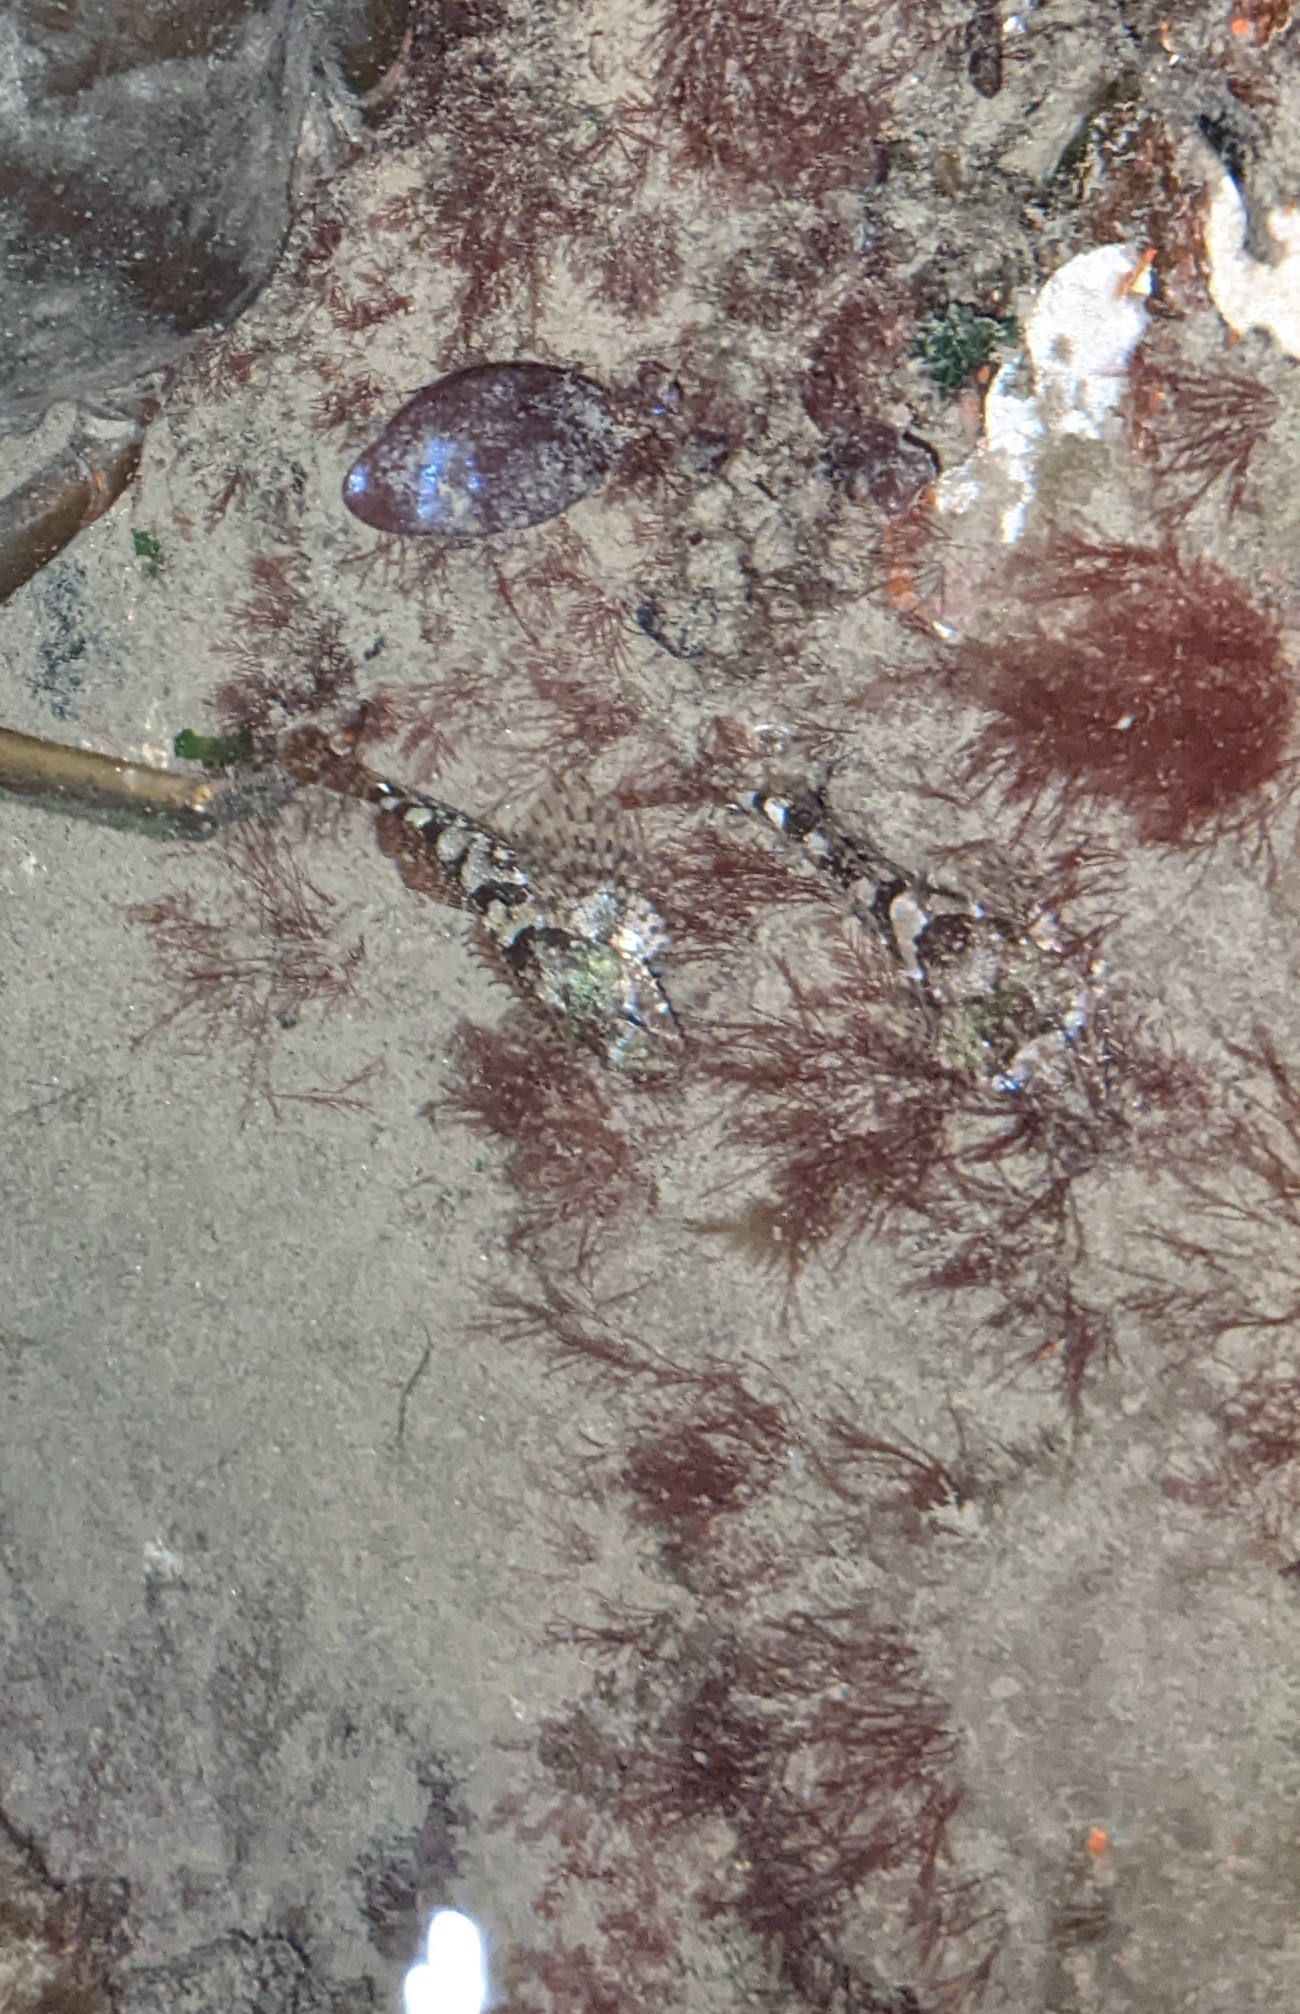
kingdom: Animalia
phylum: Chordata
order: Scorpaeniformes
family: Cottidae
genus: Oligocottus
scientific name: Oligocottus maculosus
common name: Tidepool sculpin
